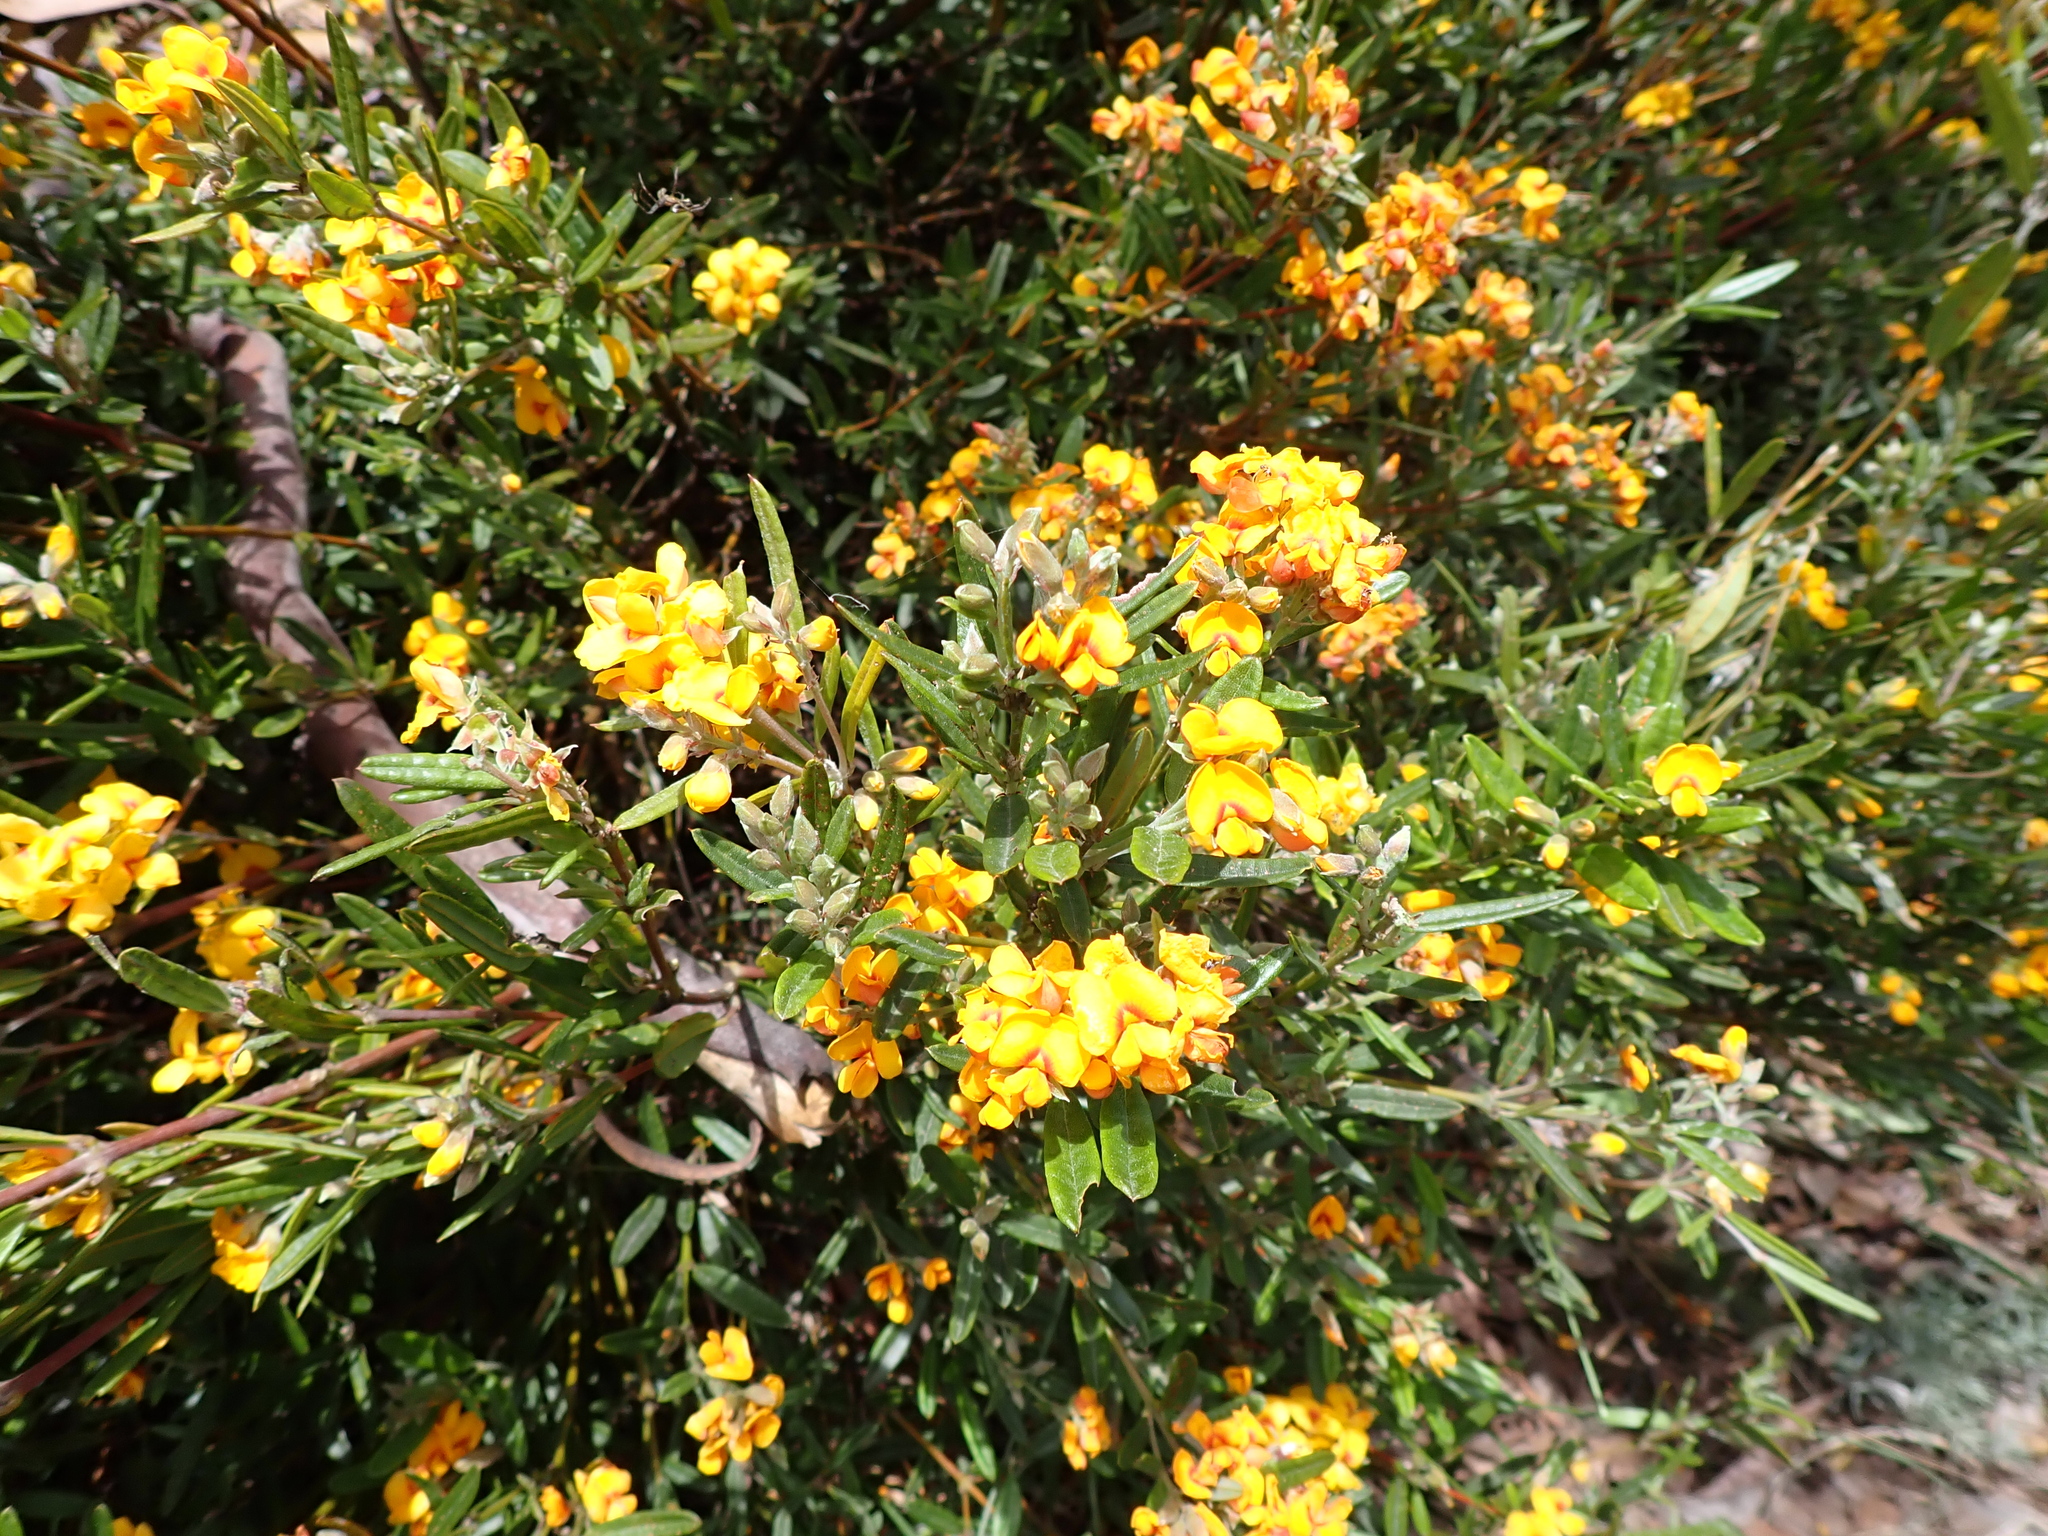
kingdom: Plantae
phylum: Tracheophyta
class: Magnoliopsida
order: Fabales
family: Fabaceae
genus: Podolobium
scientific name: Podolobium alpestre
